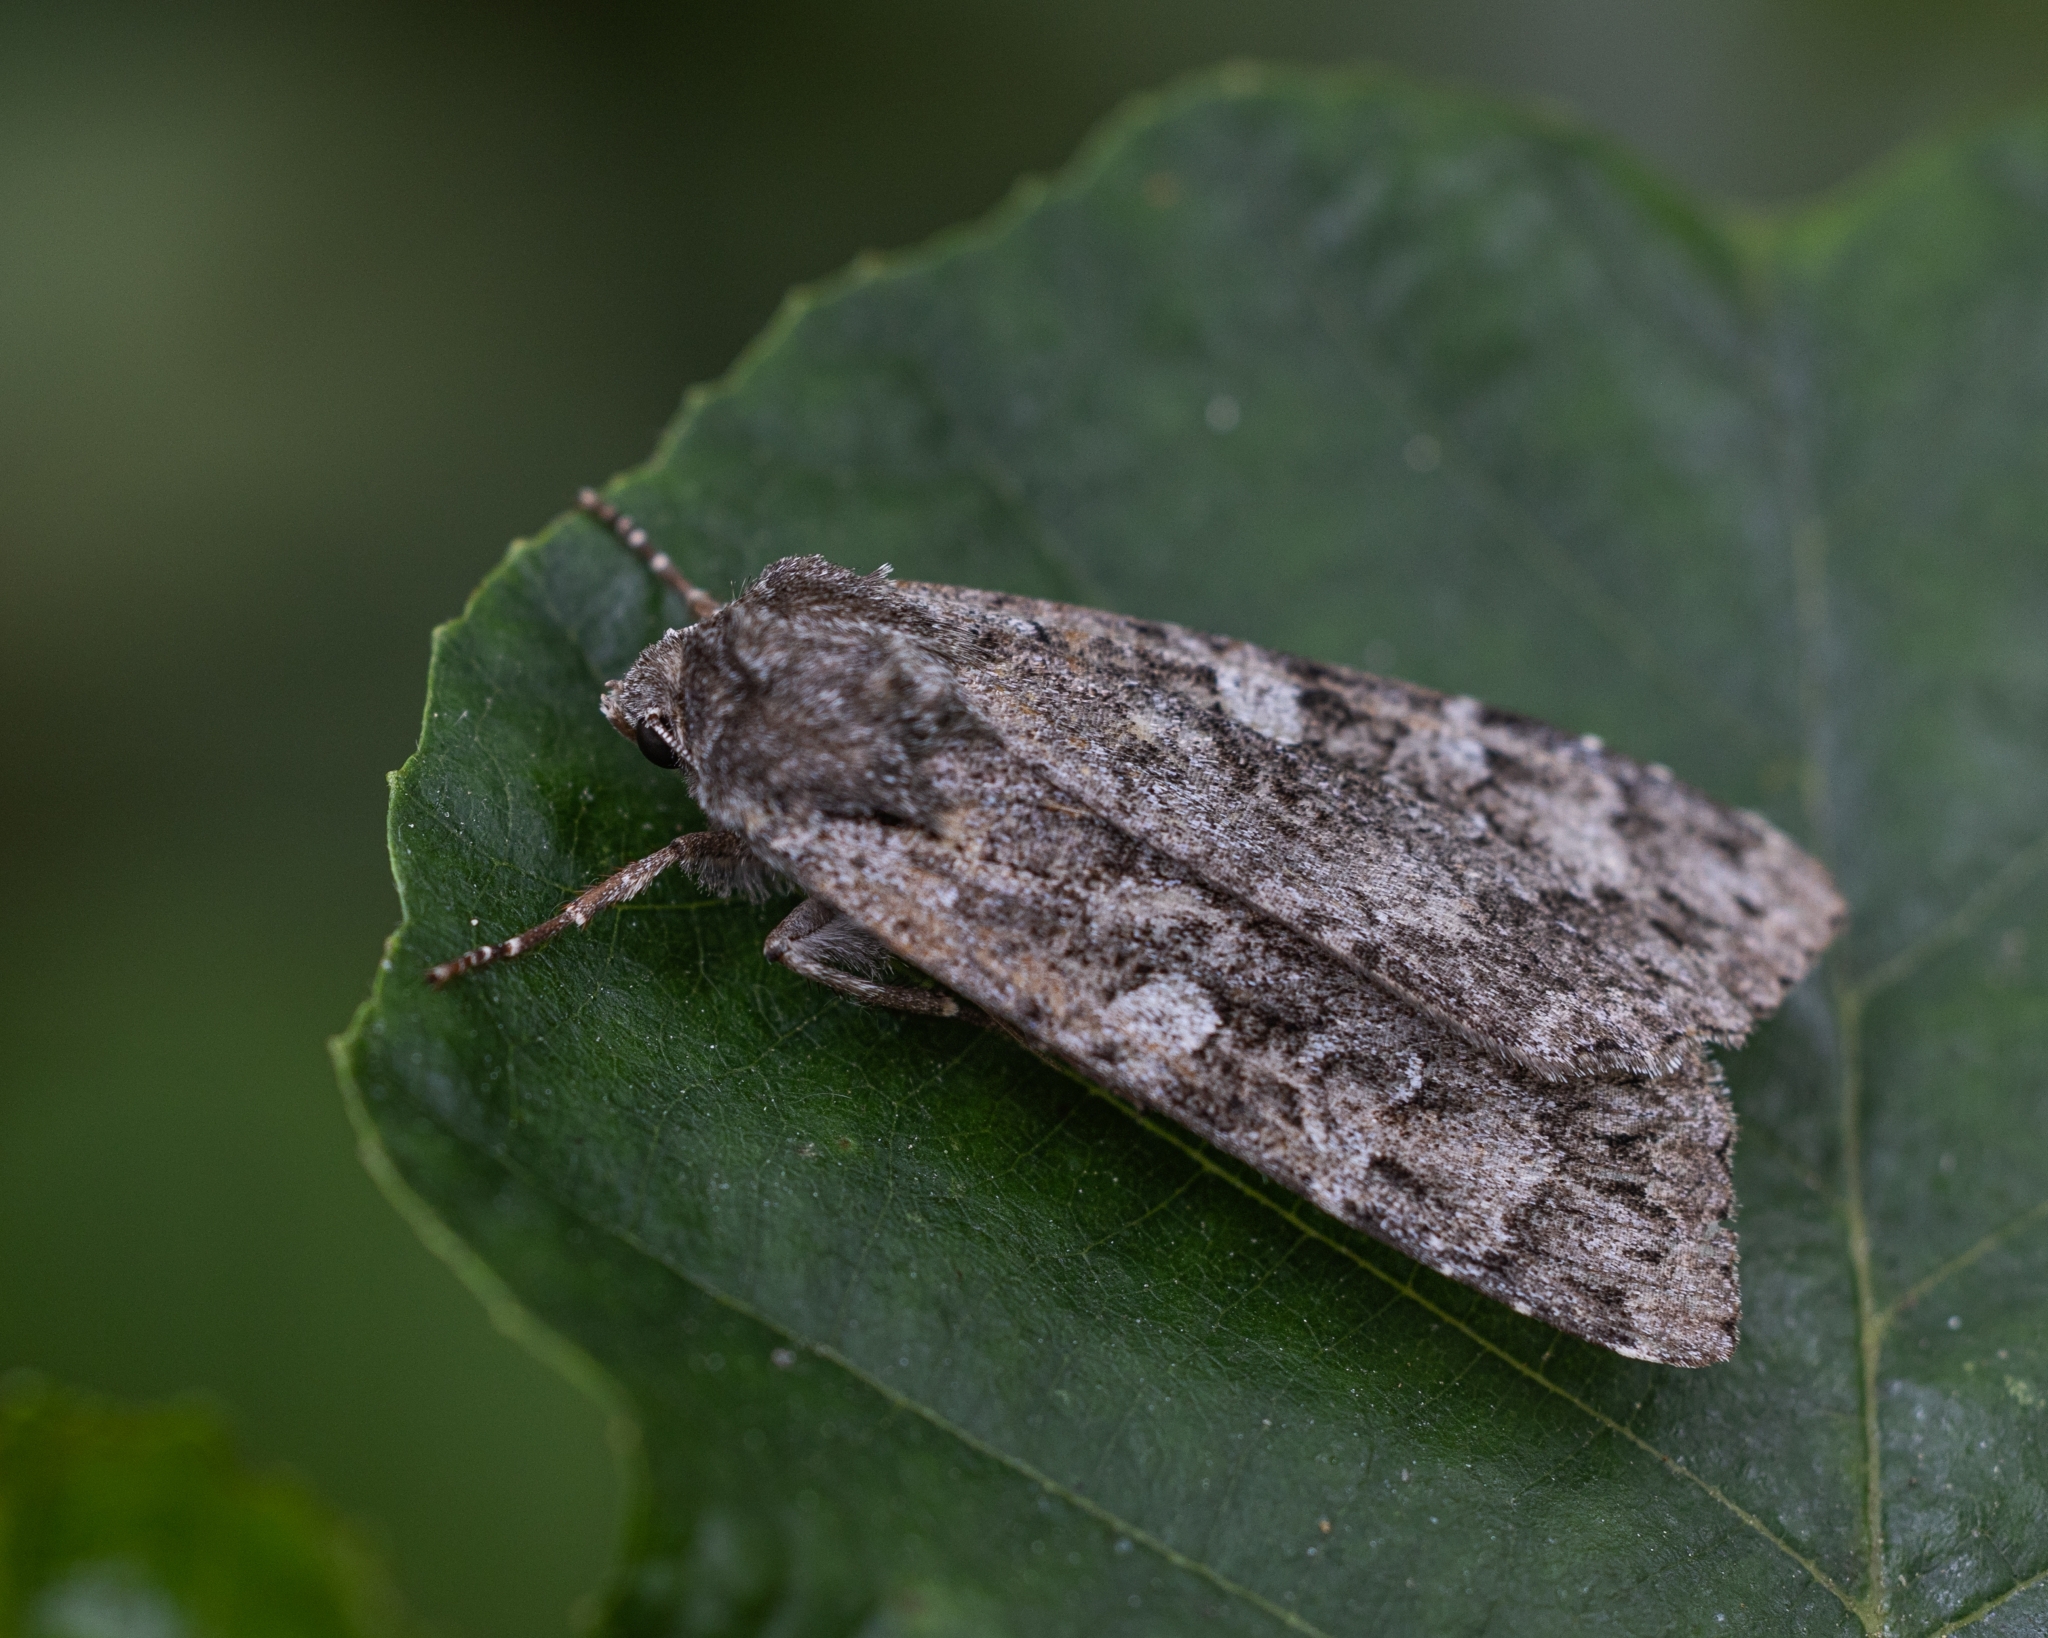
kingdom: Animalia
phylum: Arthropoda
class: Insecta
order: Lepidoptera
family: Noctuidae
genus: Eurois
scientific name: Eurois occulta
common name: Great brocade
